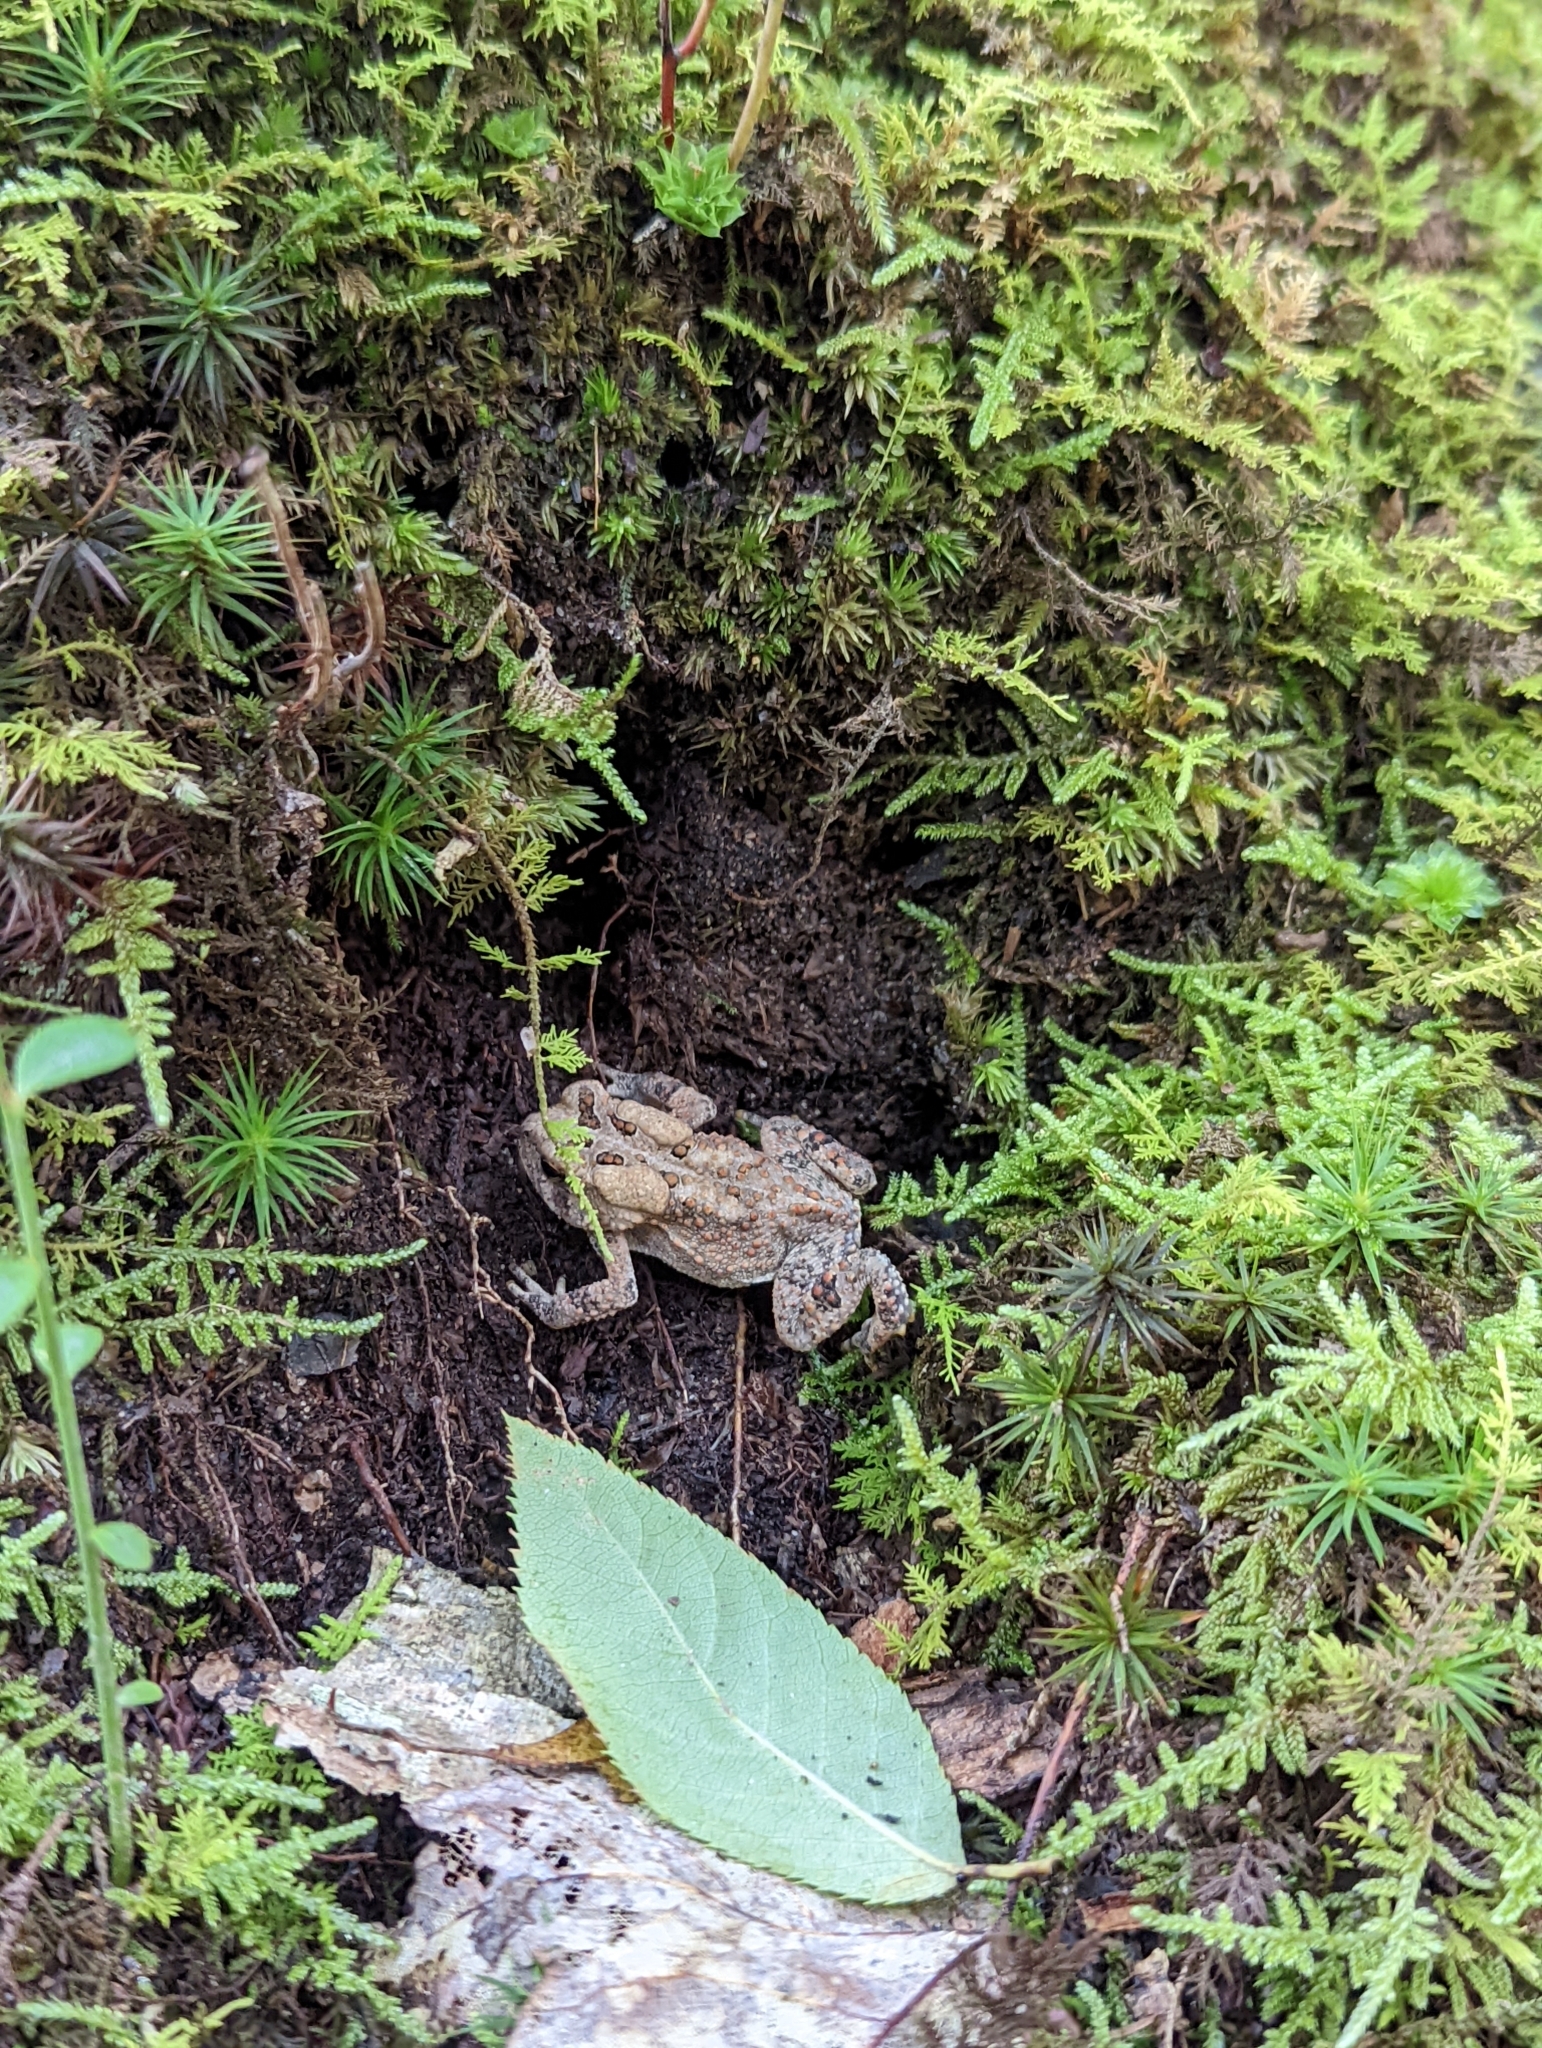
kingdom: Animalia
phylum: Chordata
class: Amphibia
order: Anura
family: Bufonidae
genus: Anaxyrus
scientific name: Anaxyrus americanus
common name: American toad
